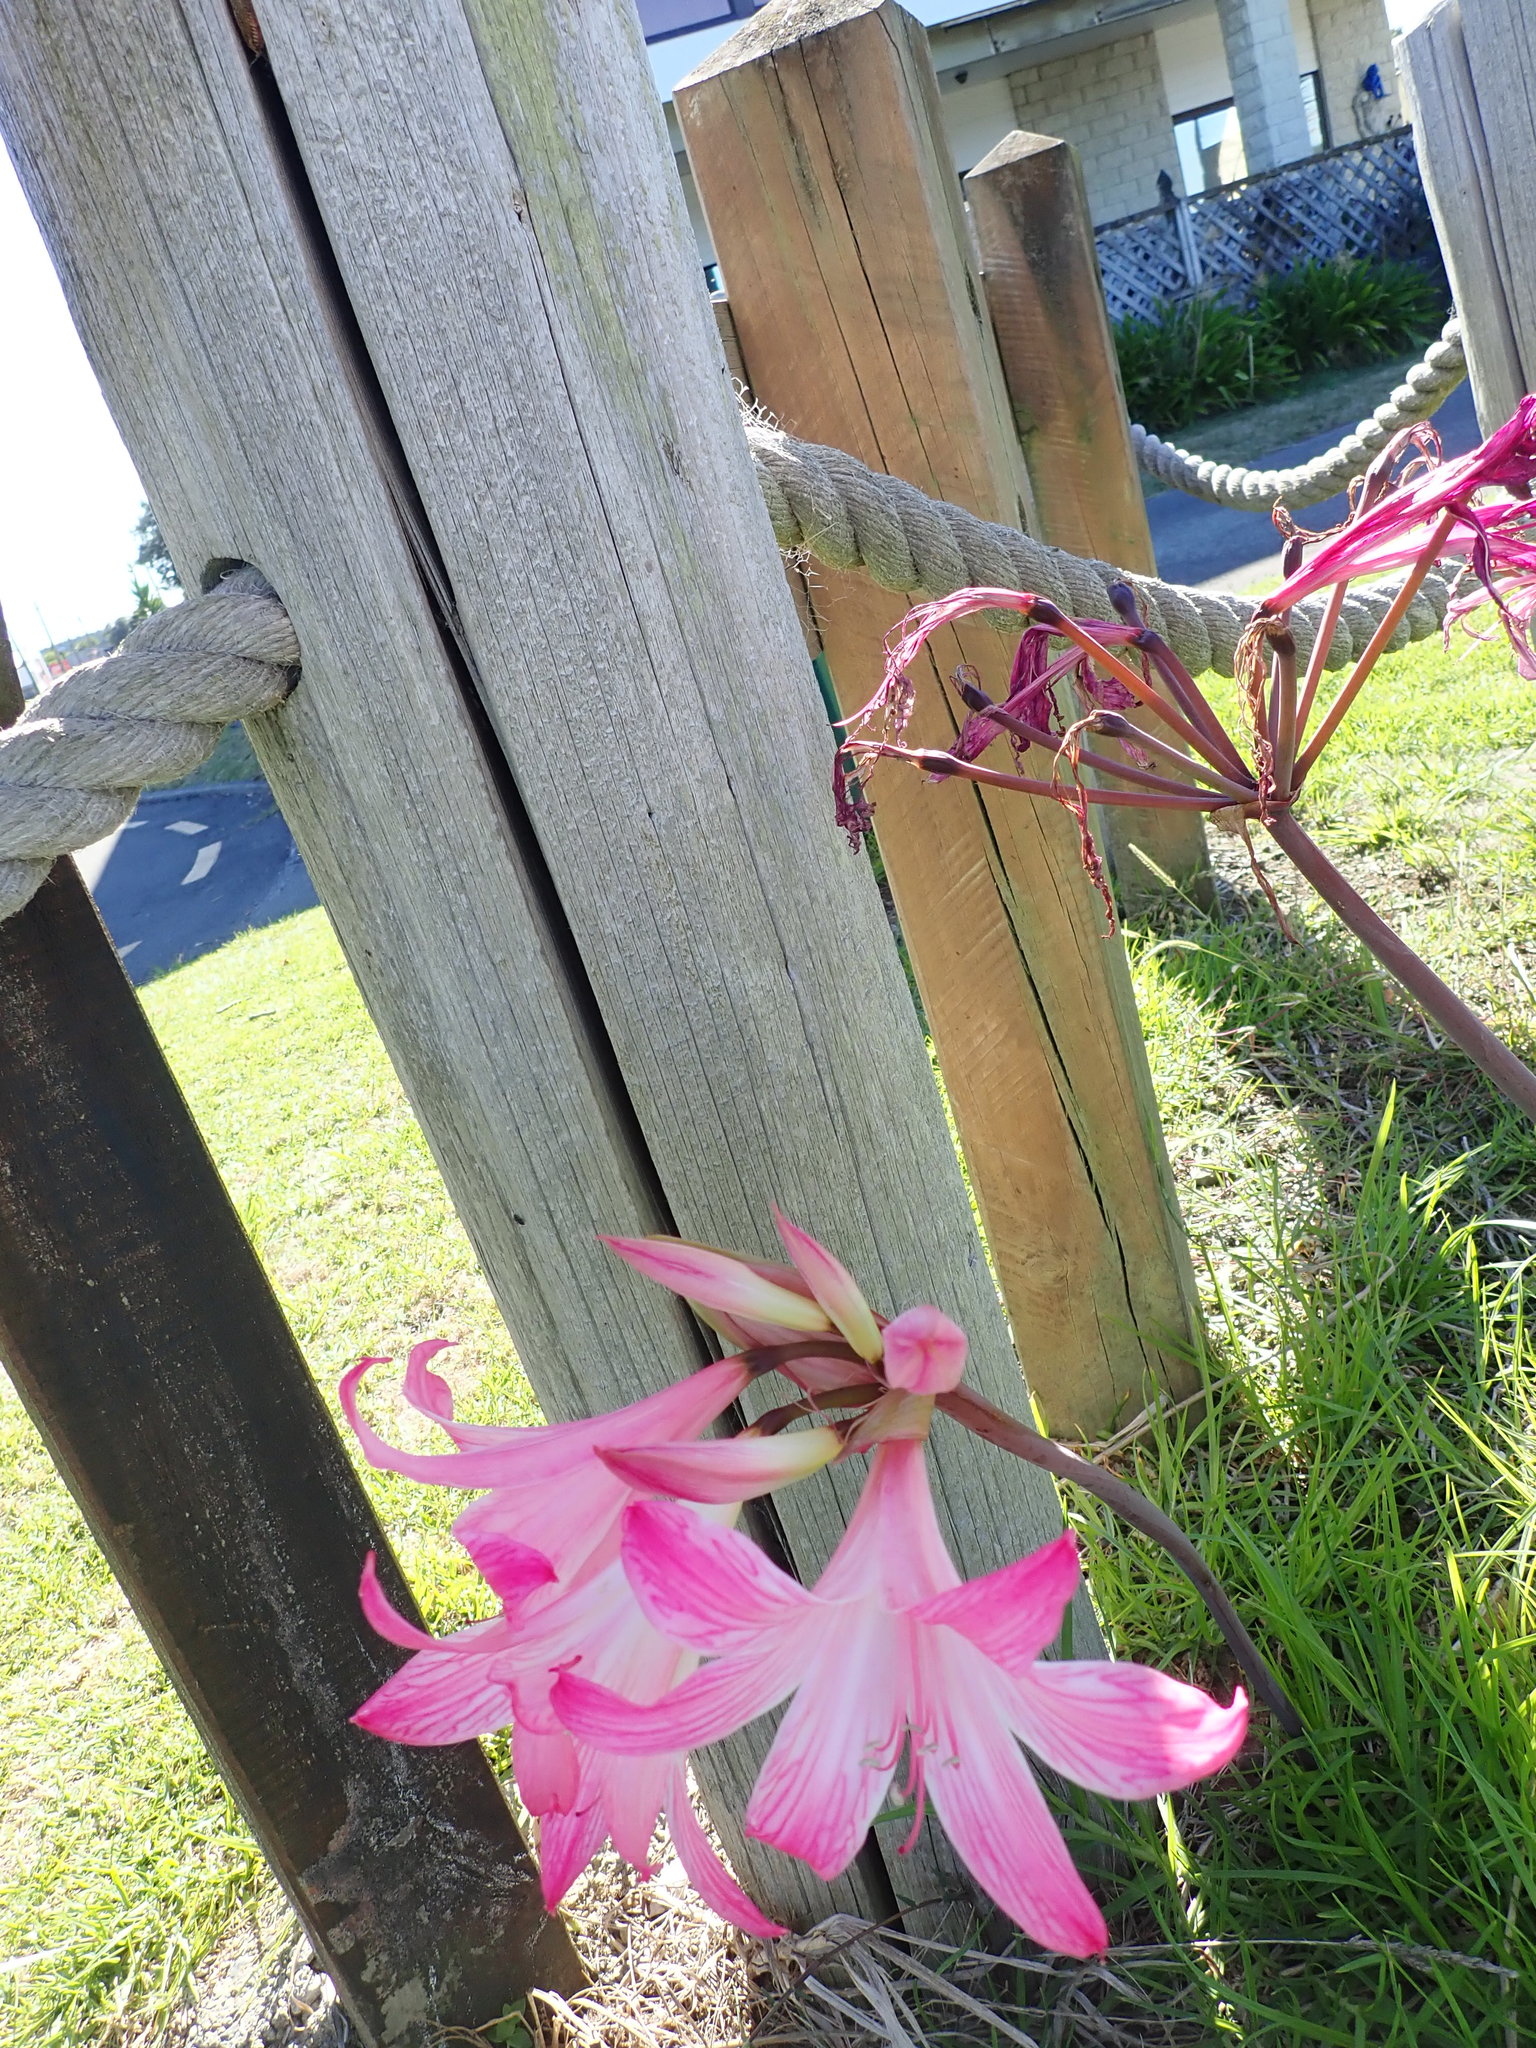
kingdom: Plantae
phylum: Tracheophyta
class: Liliopsida
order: Asparagales
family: Amaryllidaceae
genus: Amaryllis
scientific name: Amaryllis belladonna
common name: Jersey lily
